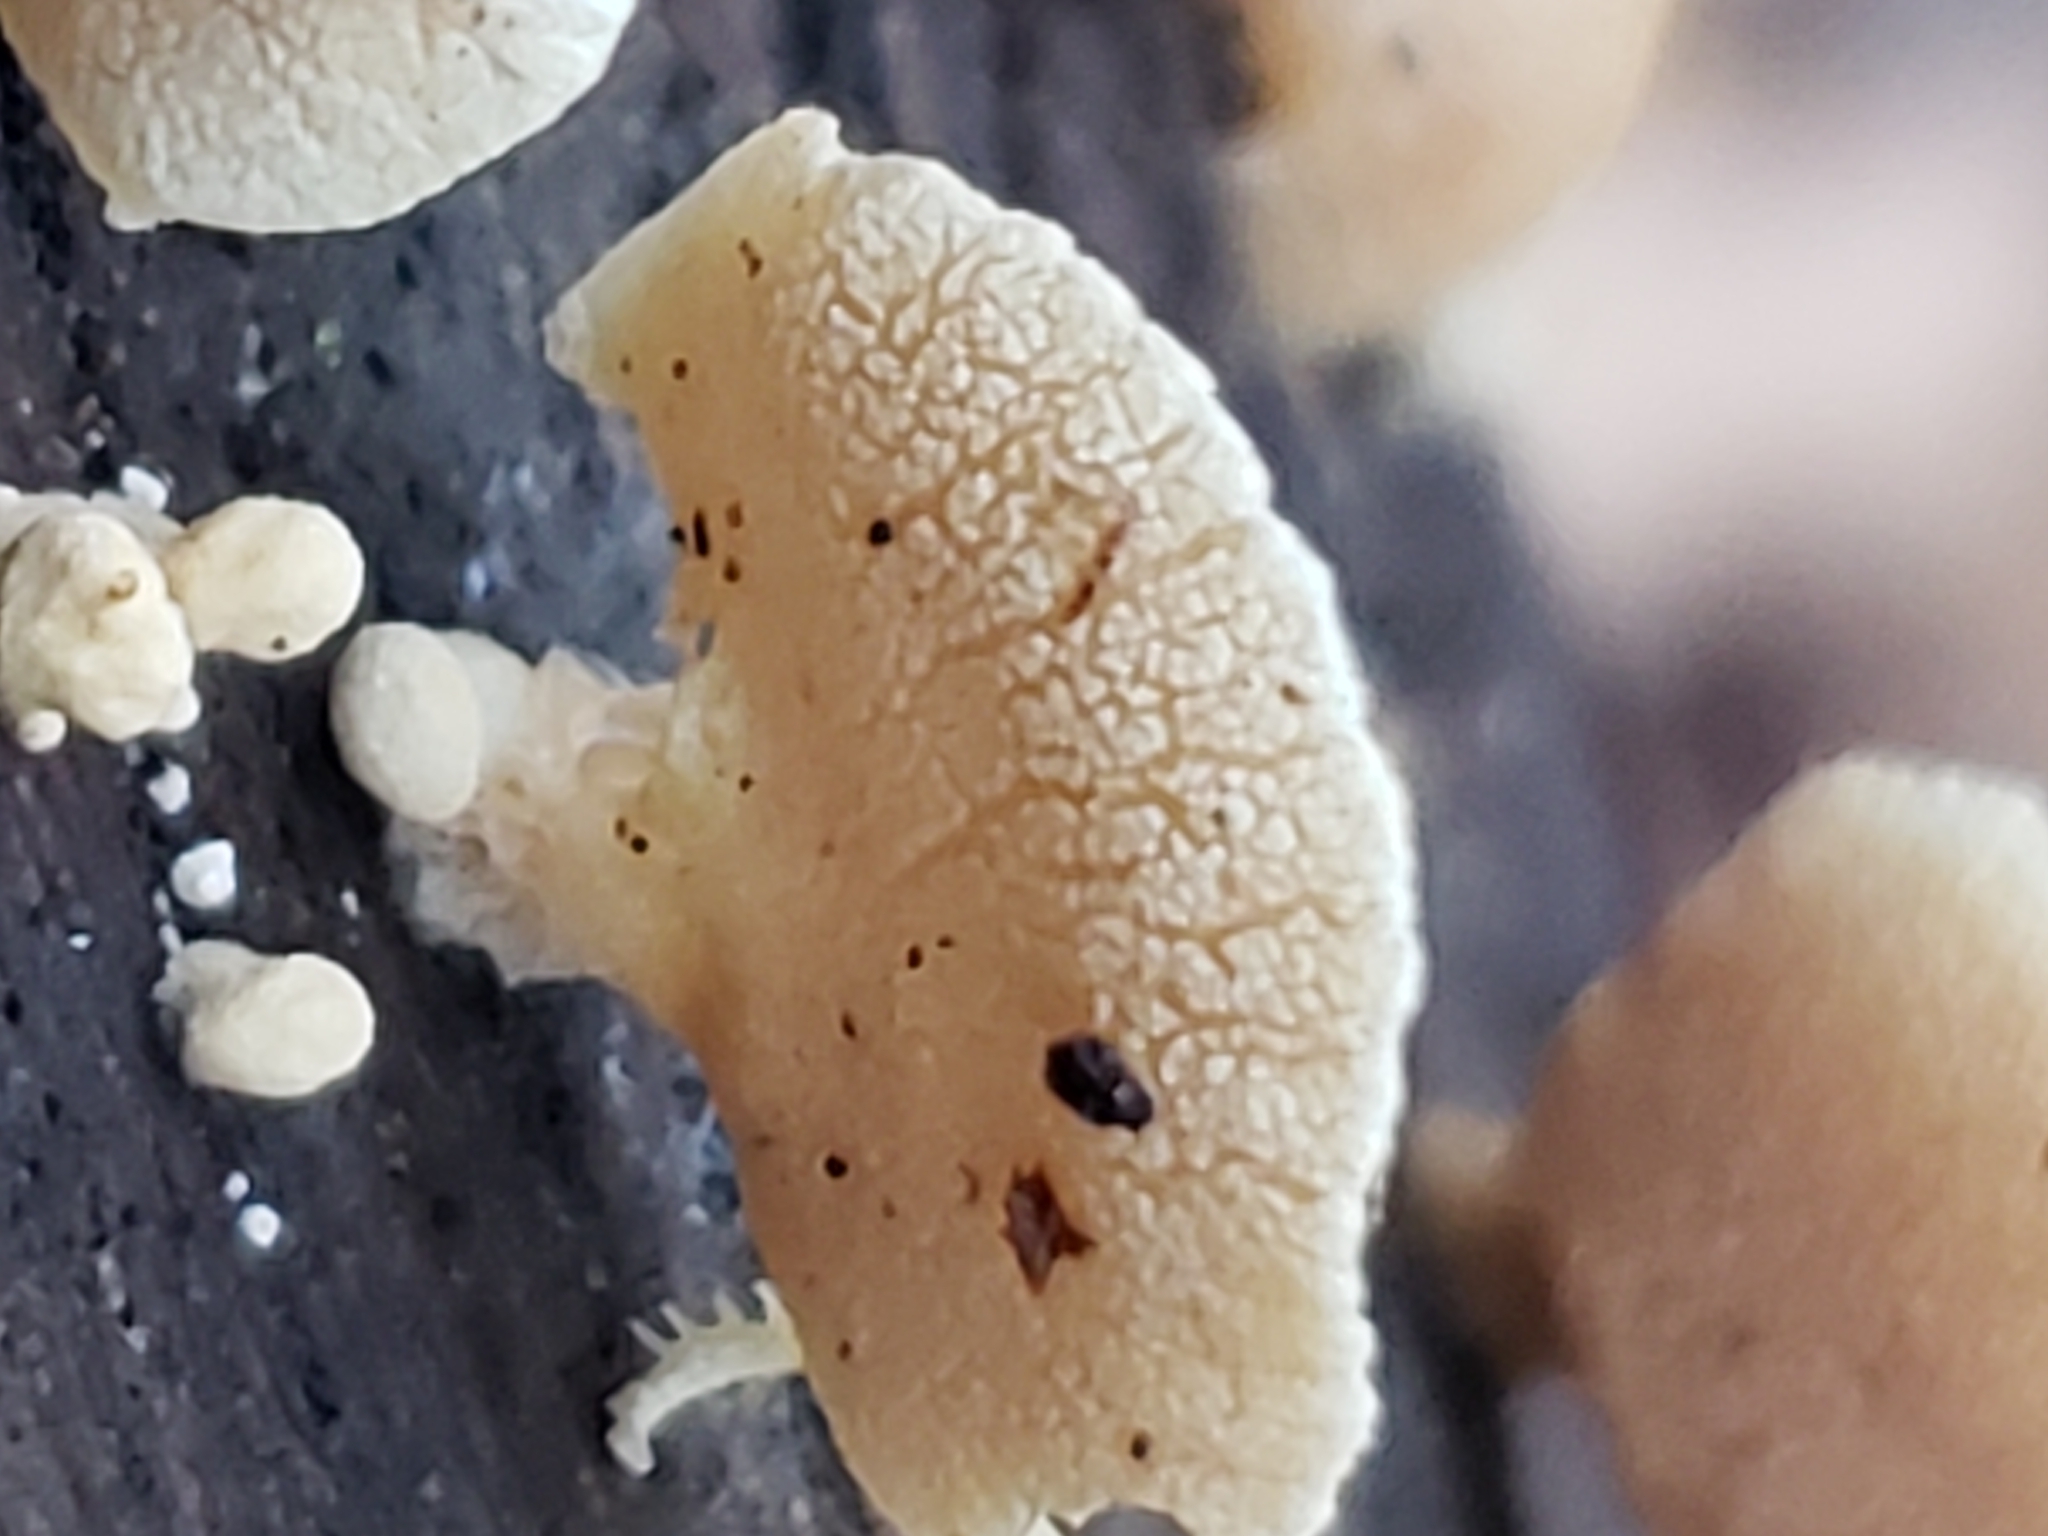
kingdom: Fungi
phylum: Basidiomycota
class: Agaricomycetes
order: Agaricales
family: Mycenaceae
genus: Panellus
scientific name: Panellus stipticus
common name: Bitter oysterling
